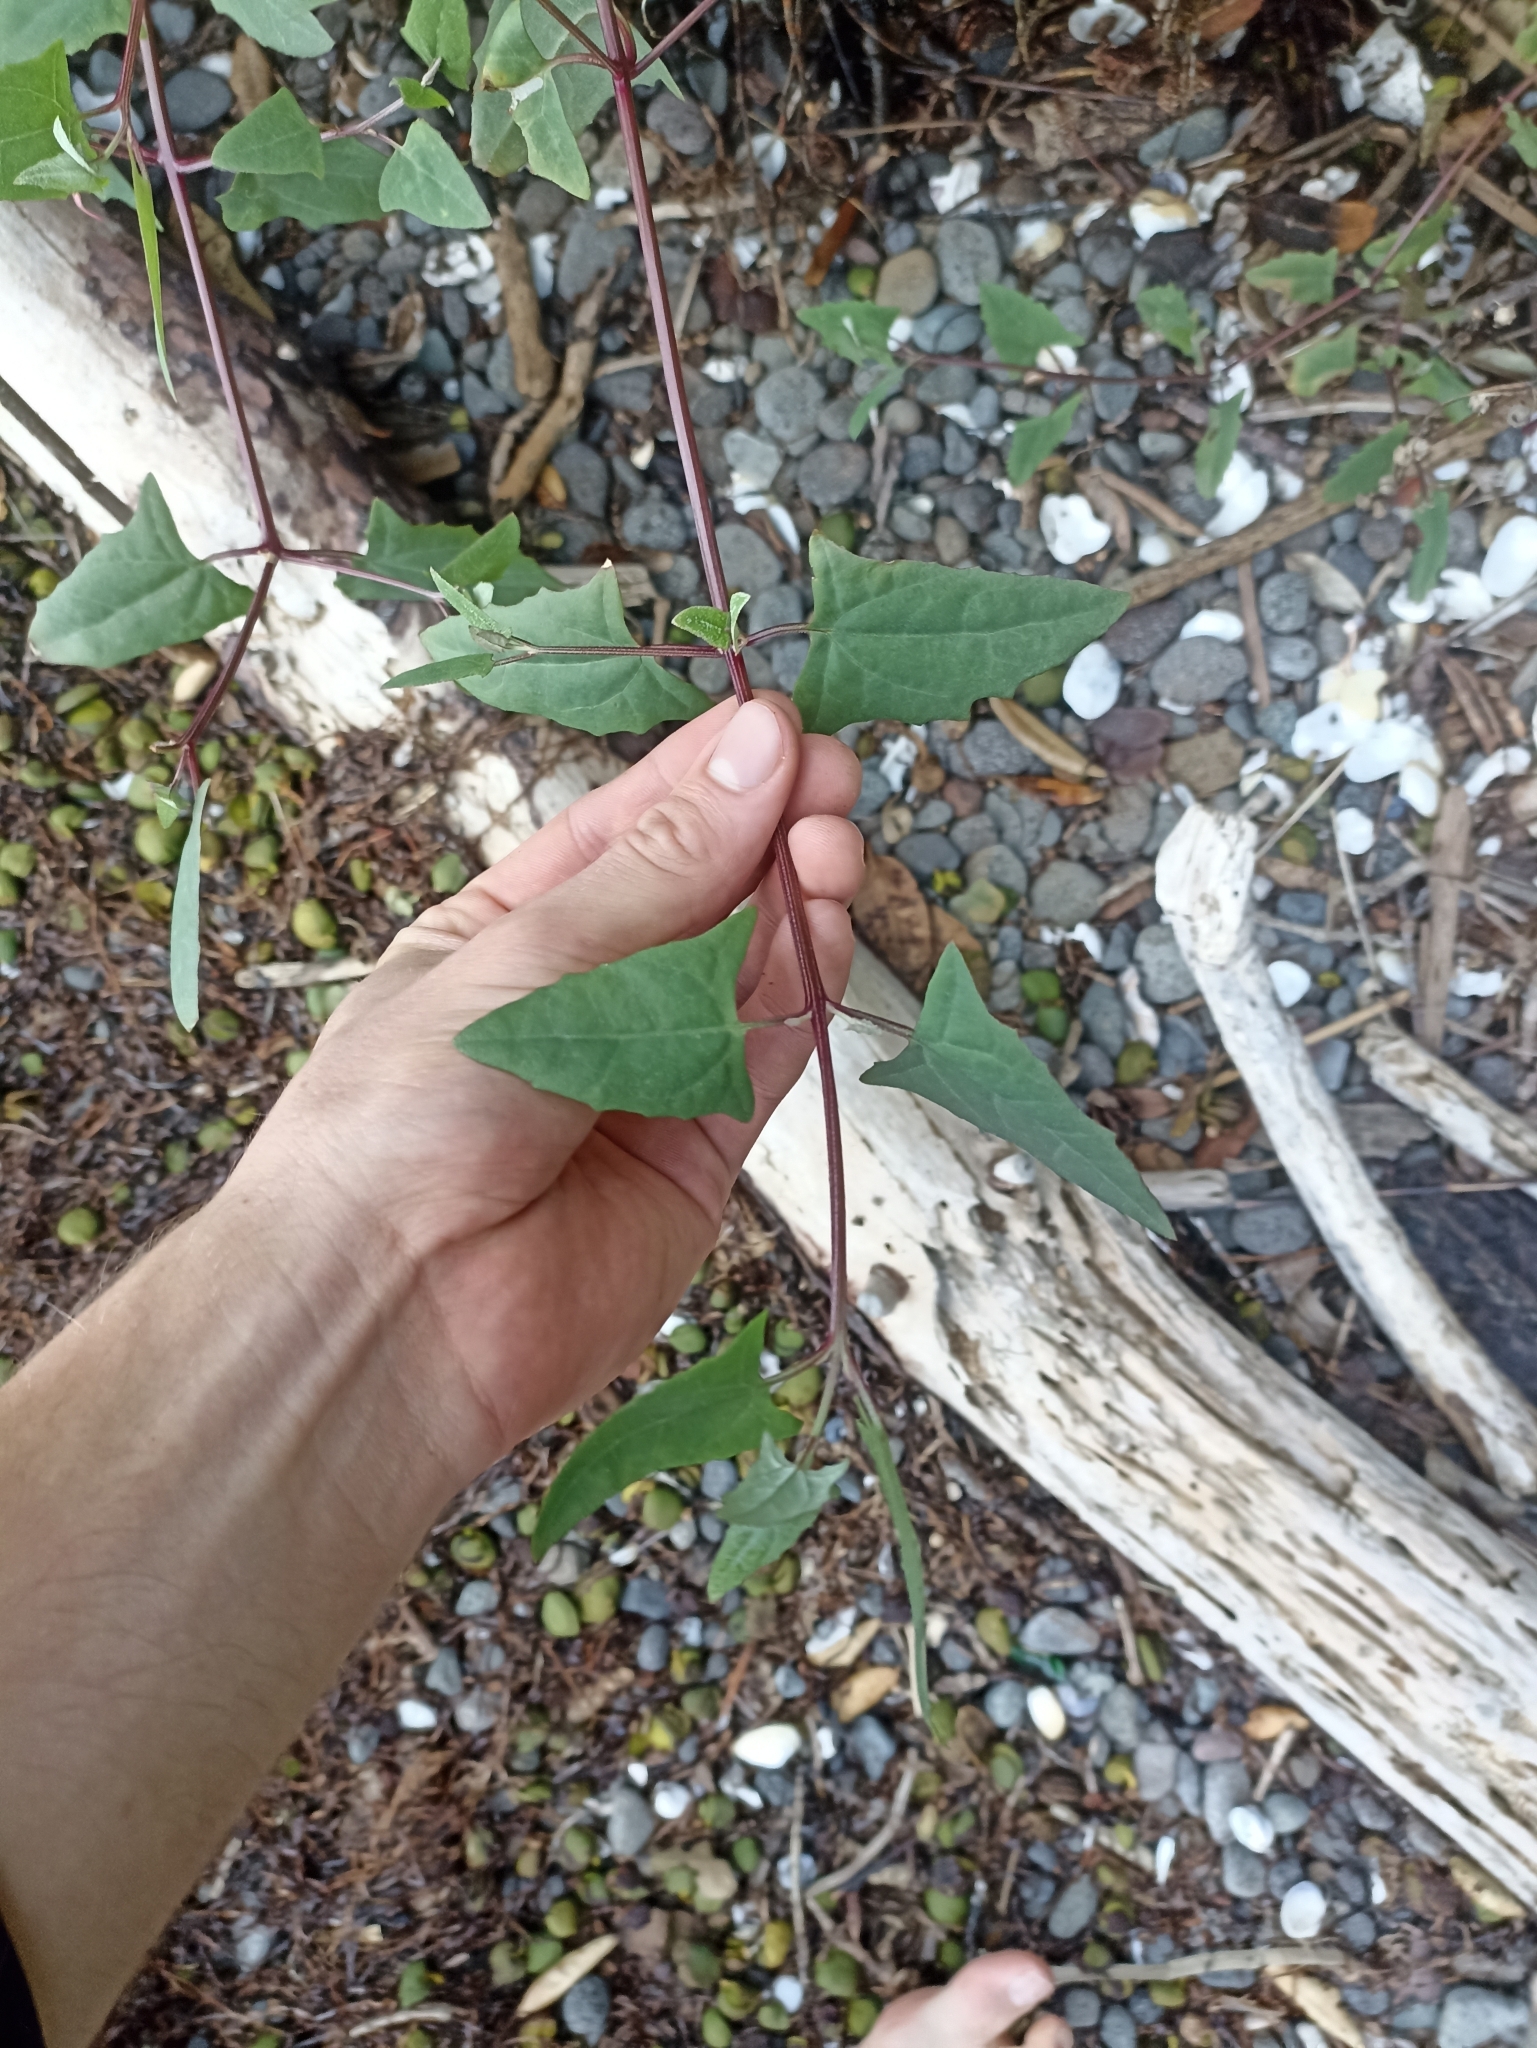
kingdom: Plantae
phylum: Tracheophyta
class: Magnoliopsida
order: Caryophyllales
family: Amaranthaceae
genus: Atriplex
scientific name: Atriplex prostrata
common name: Spear-leaved orache
